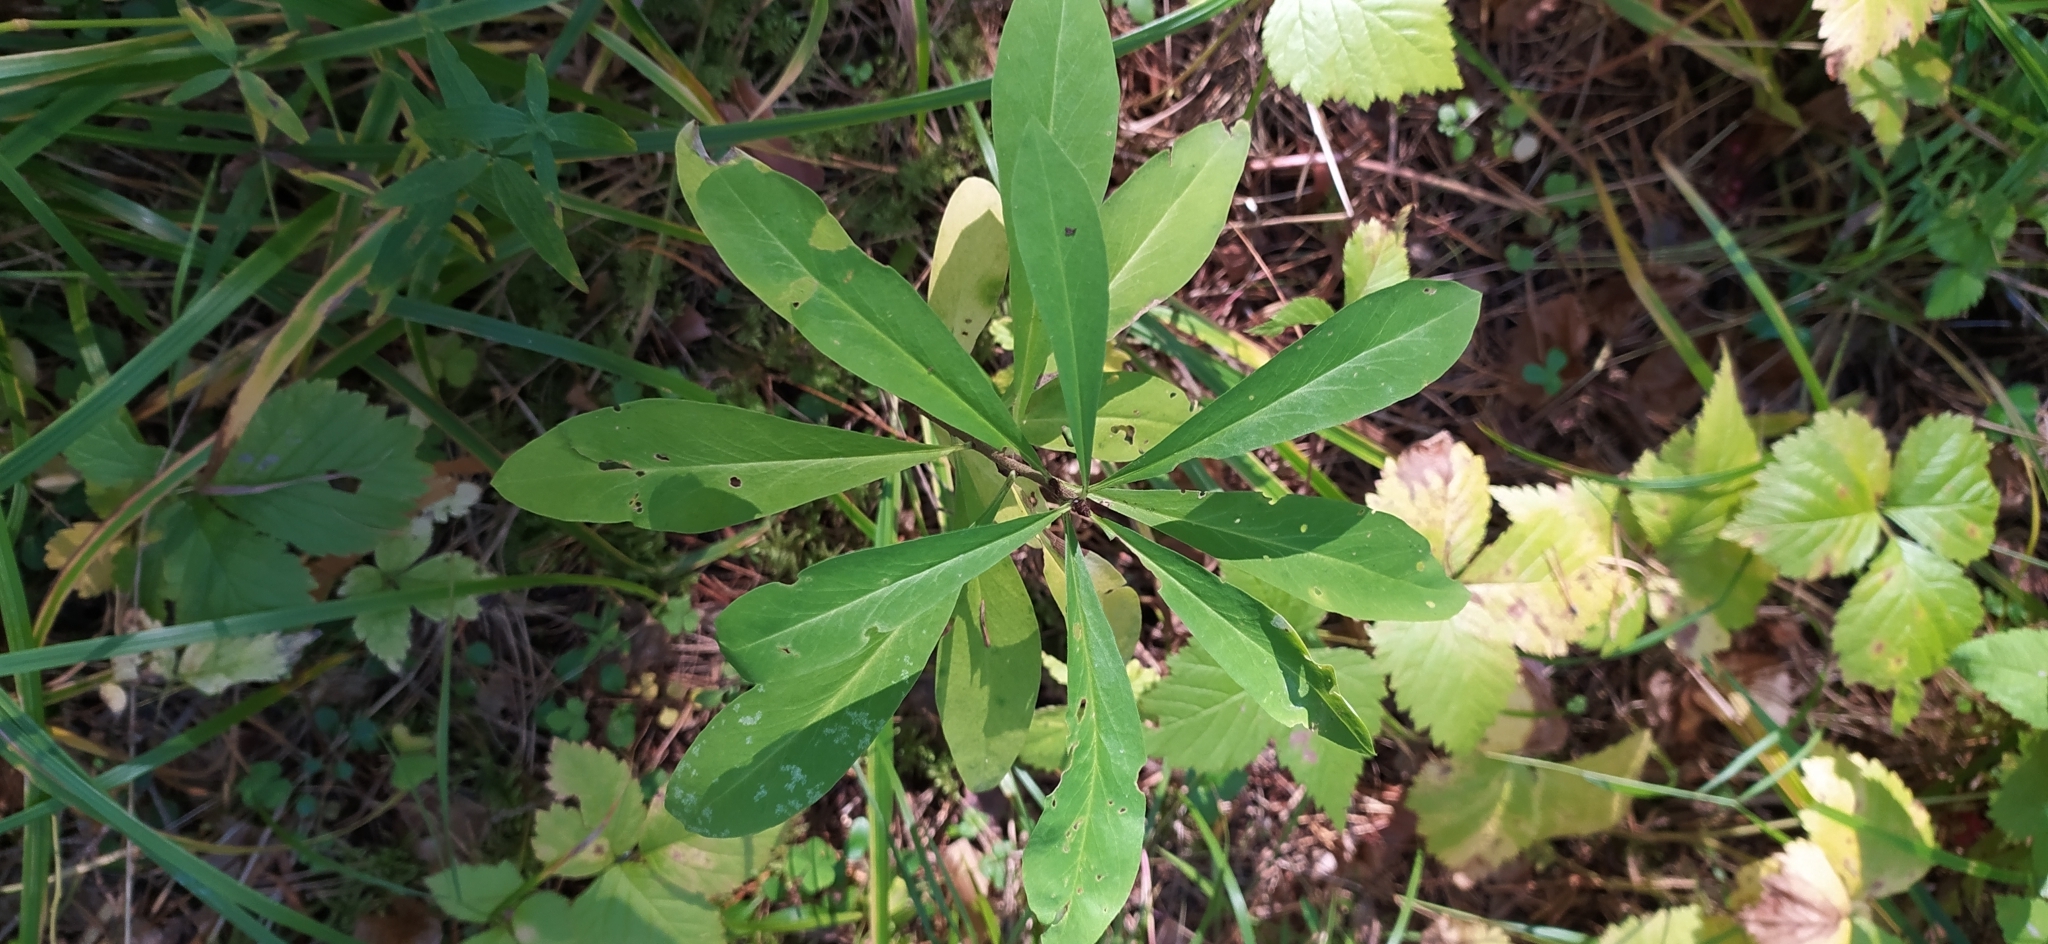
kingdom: Plantae
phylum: Tracheophyta
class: Magnoliopsida
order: Malvales
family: Thymelaeaceae
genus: Daphne
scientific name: Daphne mezereum
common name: Mezereon
